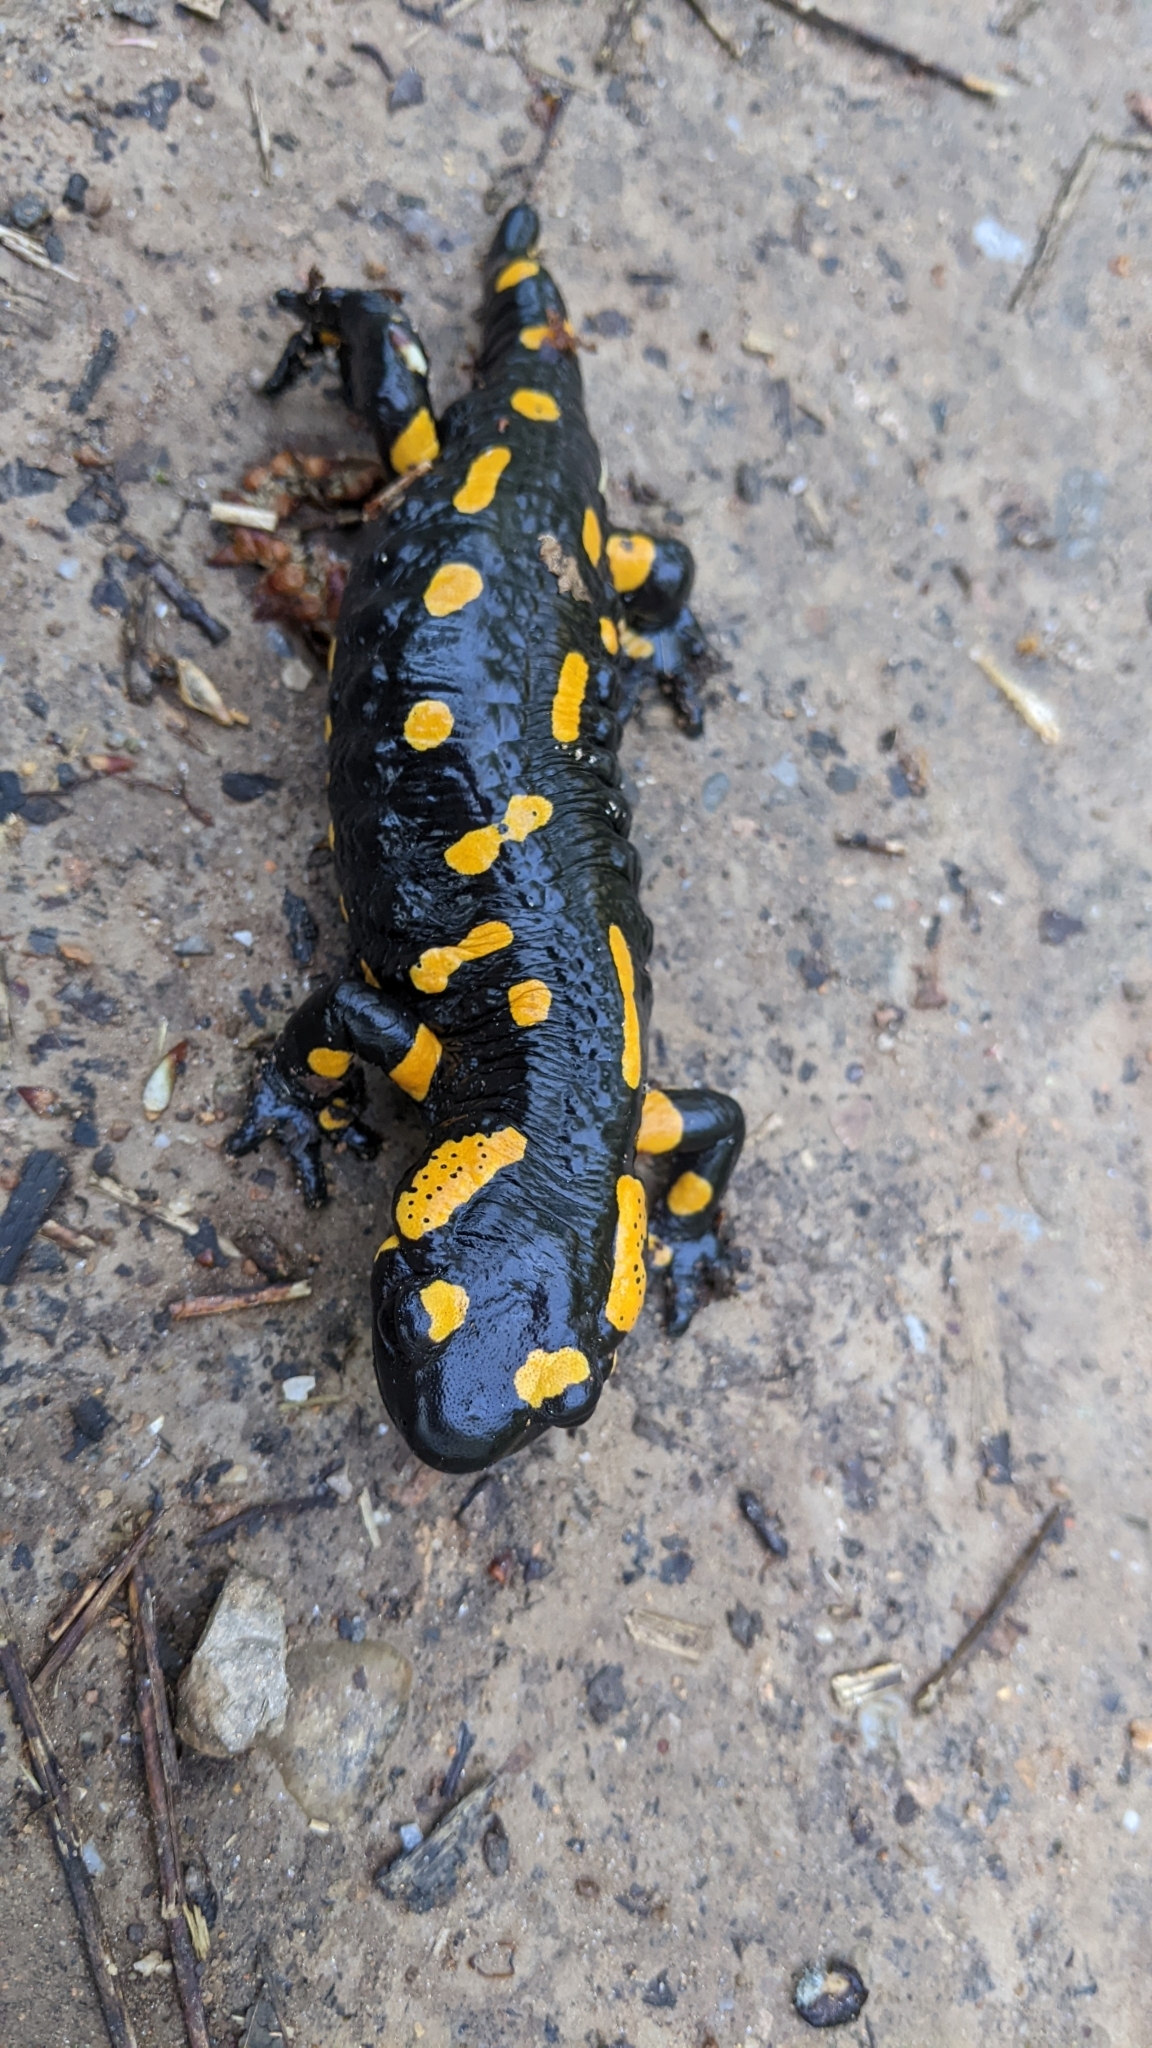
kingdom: Animalia
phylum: Chordata
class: Amphibia
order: Caudata
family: Salamandridae
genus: Salamandra
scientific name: Salamandra salamandra
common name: Fire salamander
